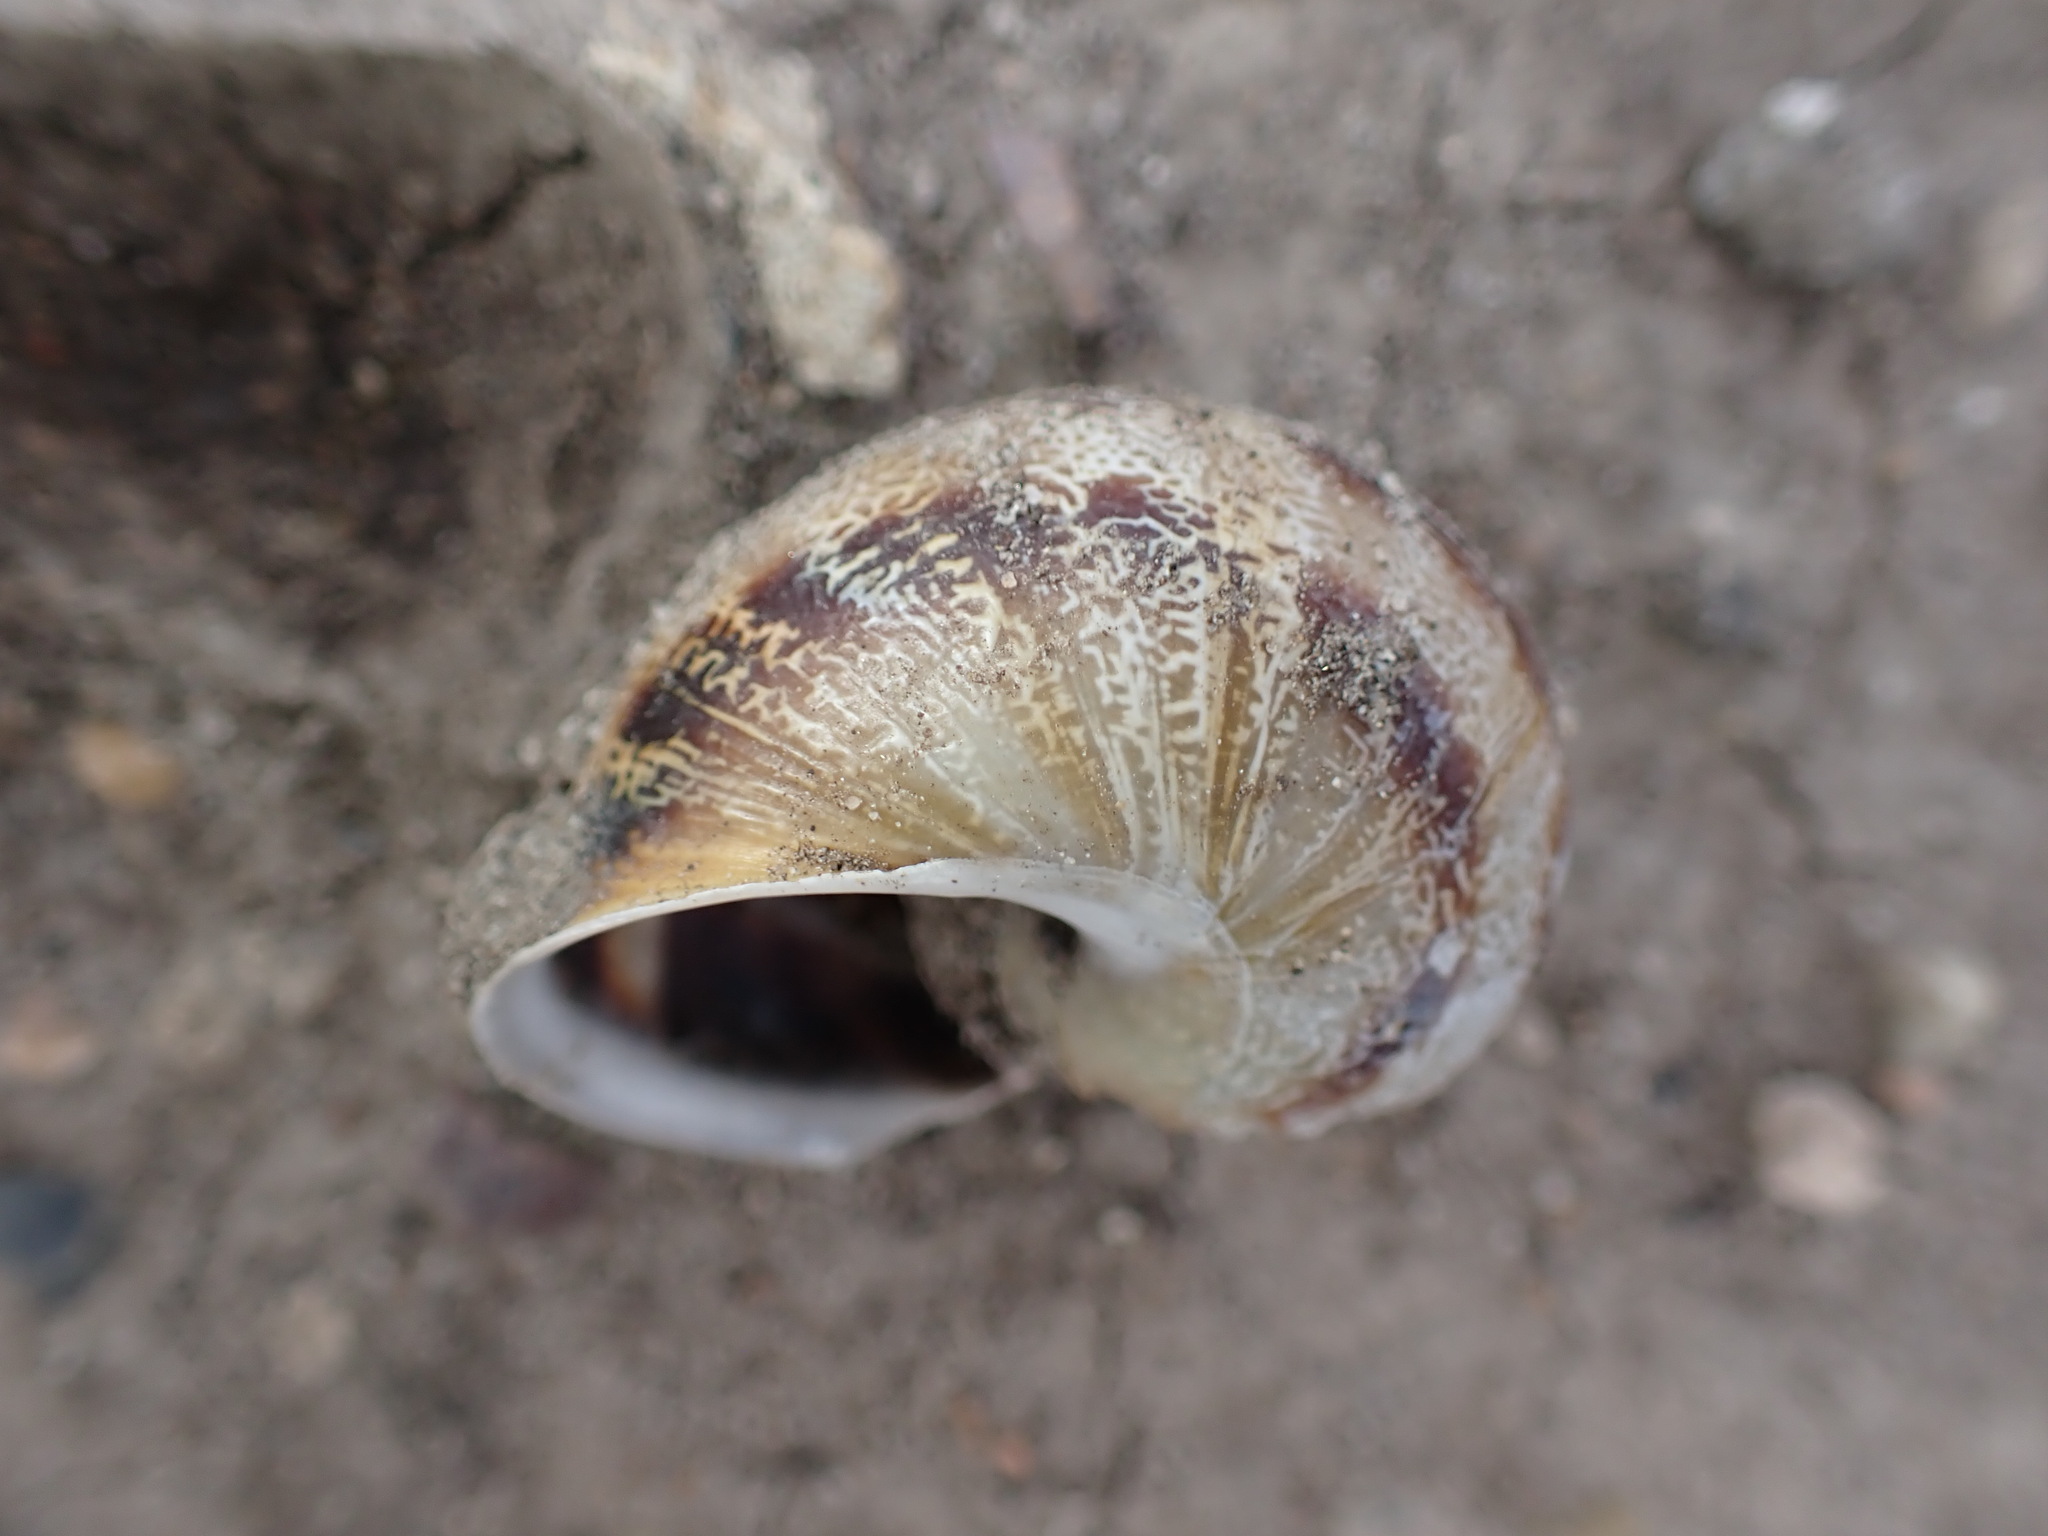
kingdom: Animalia
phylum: Mollusca
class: Gastropoda
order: Stylommatophora
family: Helicidae
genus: Cornu
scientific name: Cornu aspersum
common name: Brown garden snail
